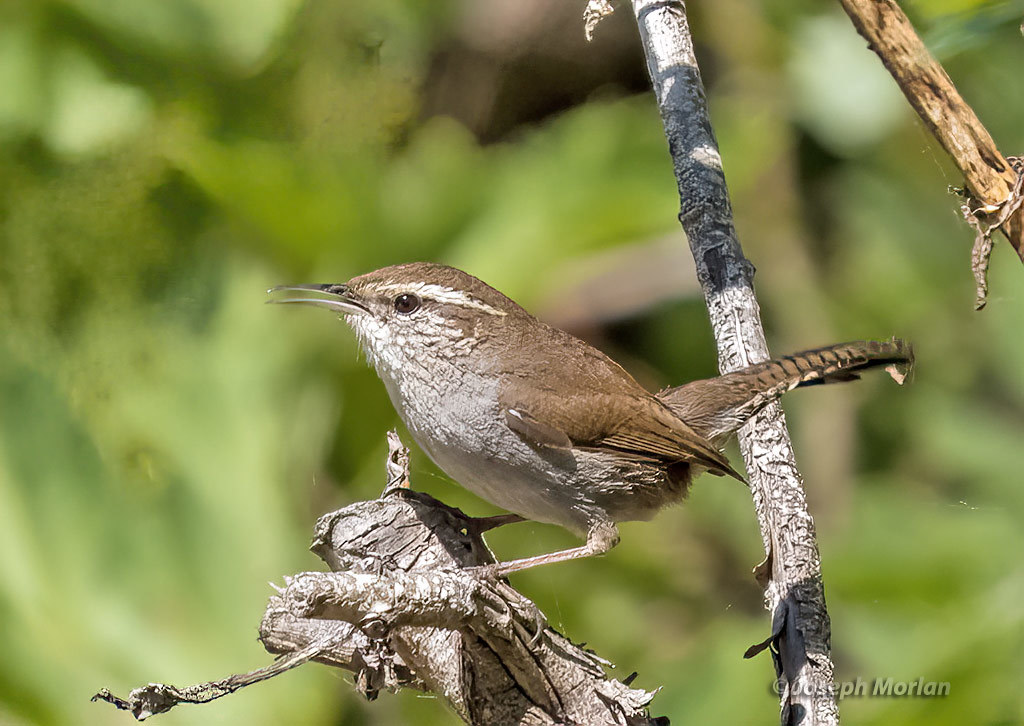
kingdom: Animalia
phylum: Chordata
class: Aves
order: Passeriformes
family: Troglodytidae
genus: Thryomanes
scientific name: Thryomanes bewickii
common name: Bewick's wren
